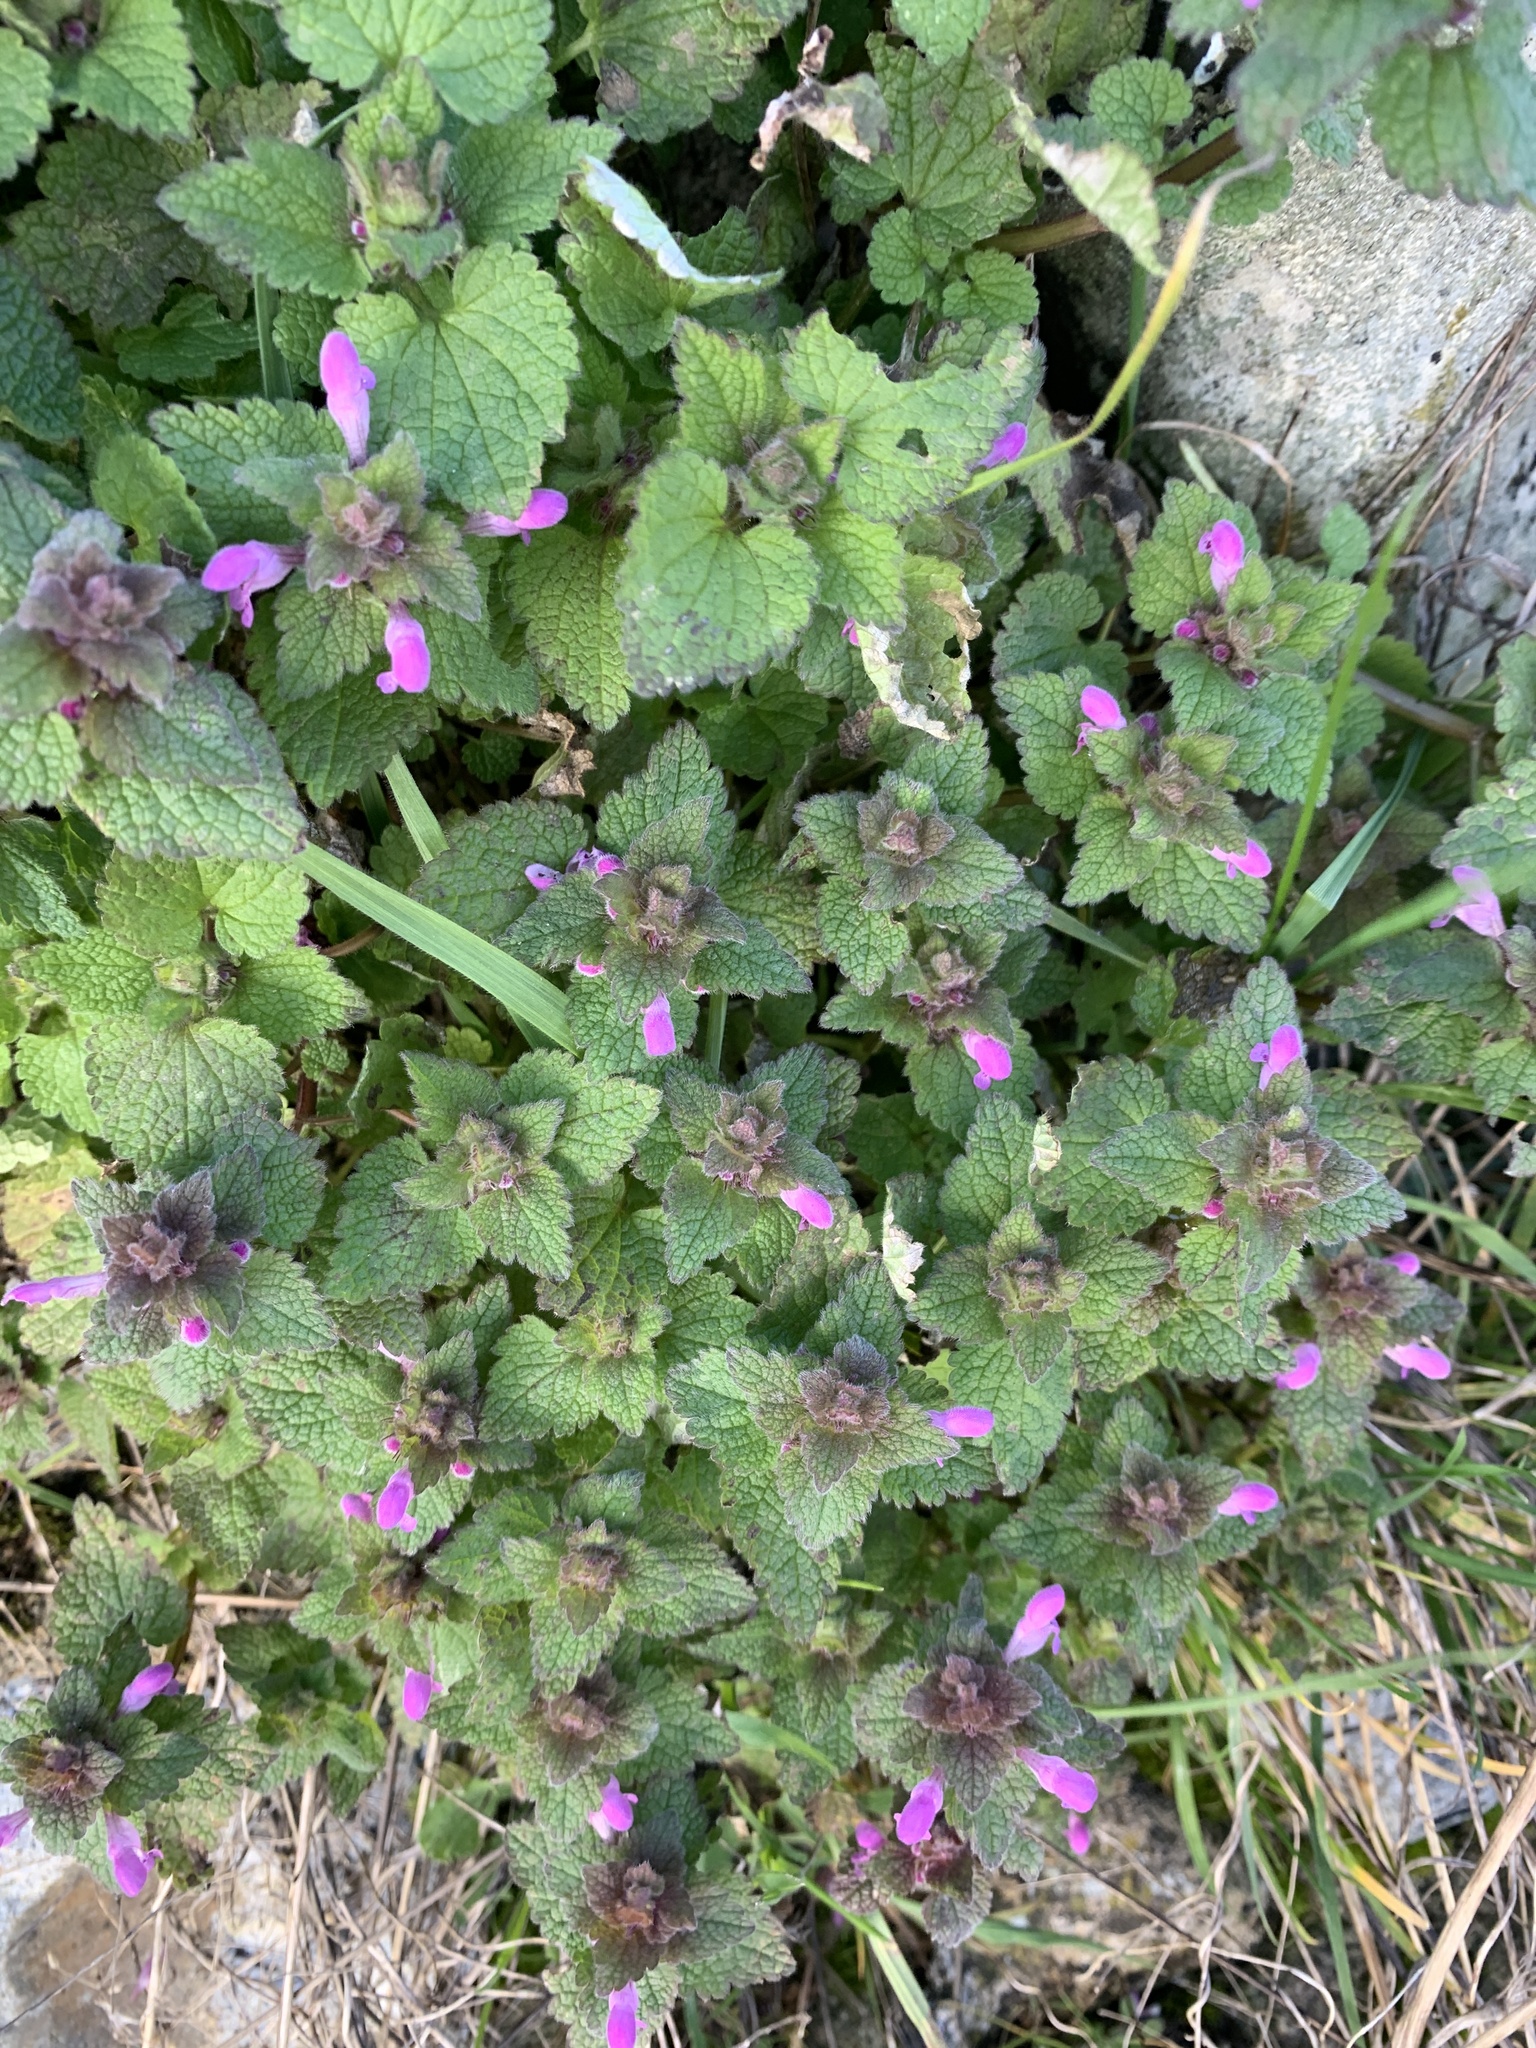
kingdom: Plantae
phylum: Tracheophyta
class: Magnoliopsida
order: Lamiales
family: Lamiaceae
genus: Lamium
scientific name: Lamium purpureum
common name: Red dead-nettle
